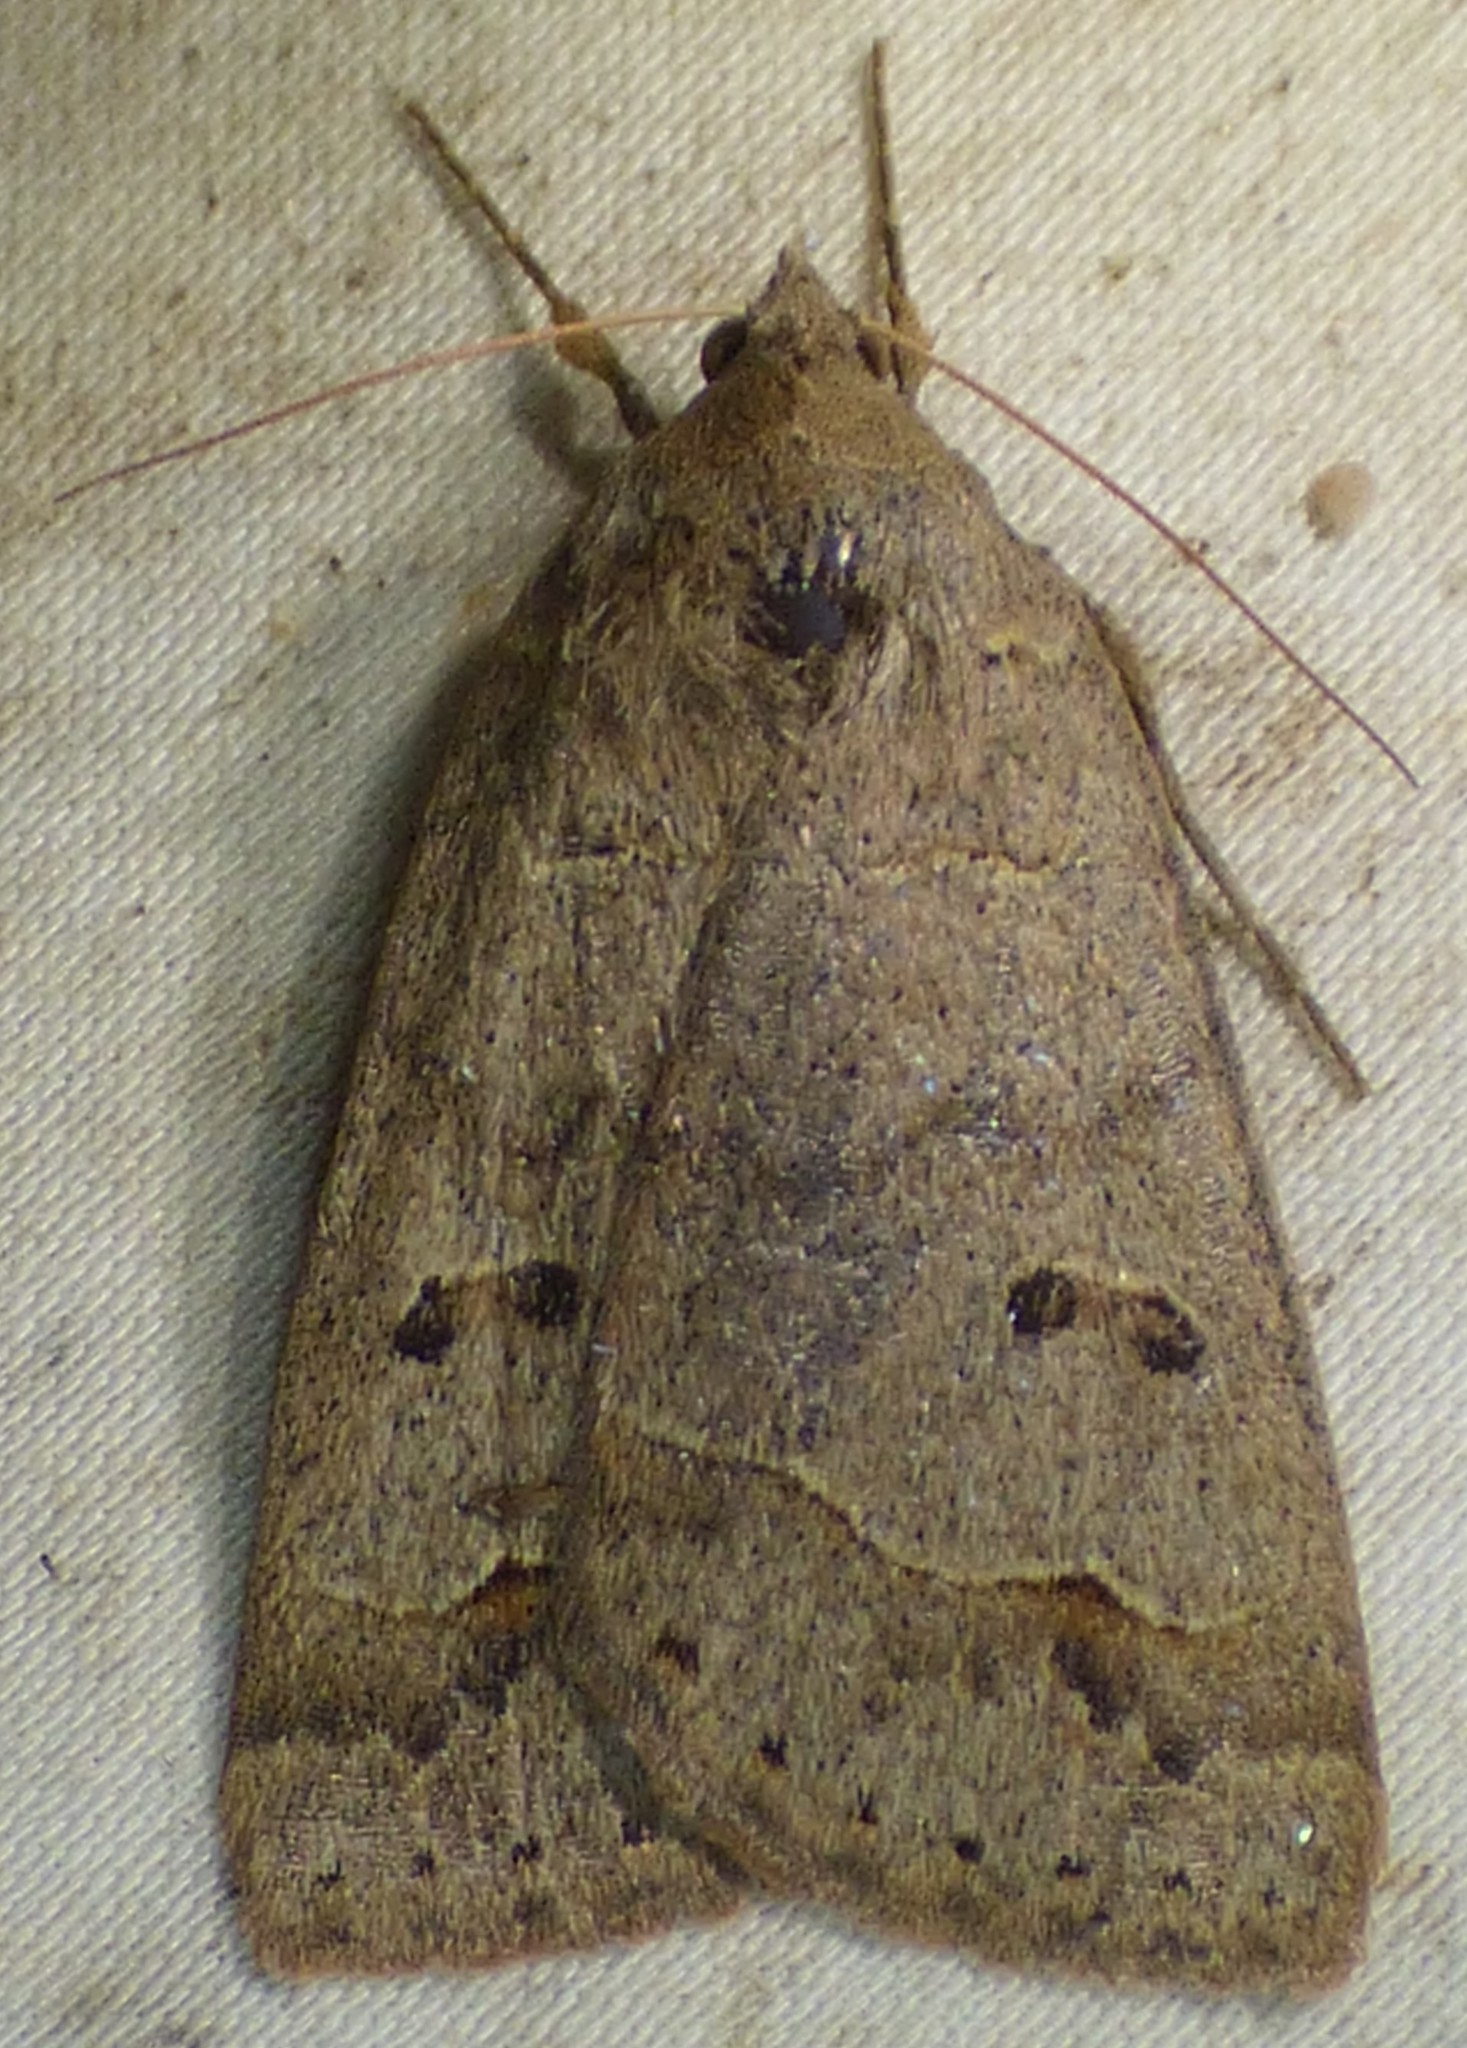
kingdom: Animalia
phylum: Arthropoda
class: Insecta
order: Lepidoptera
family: Erebidae
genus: Phoberia
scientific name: Phoberia atomaris
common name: Common oak moth
